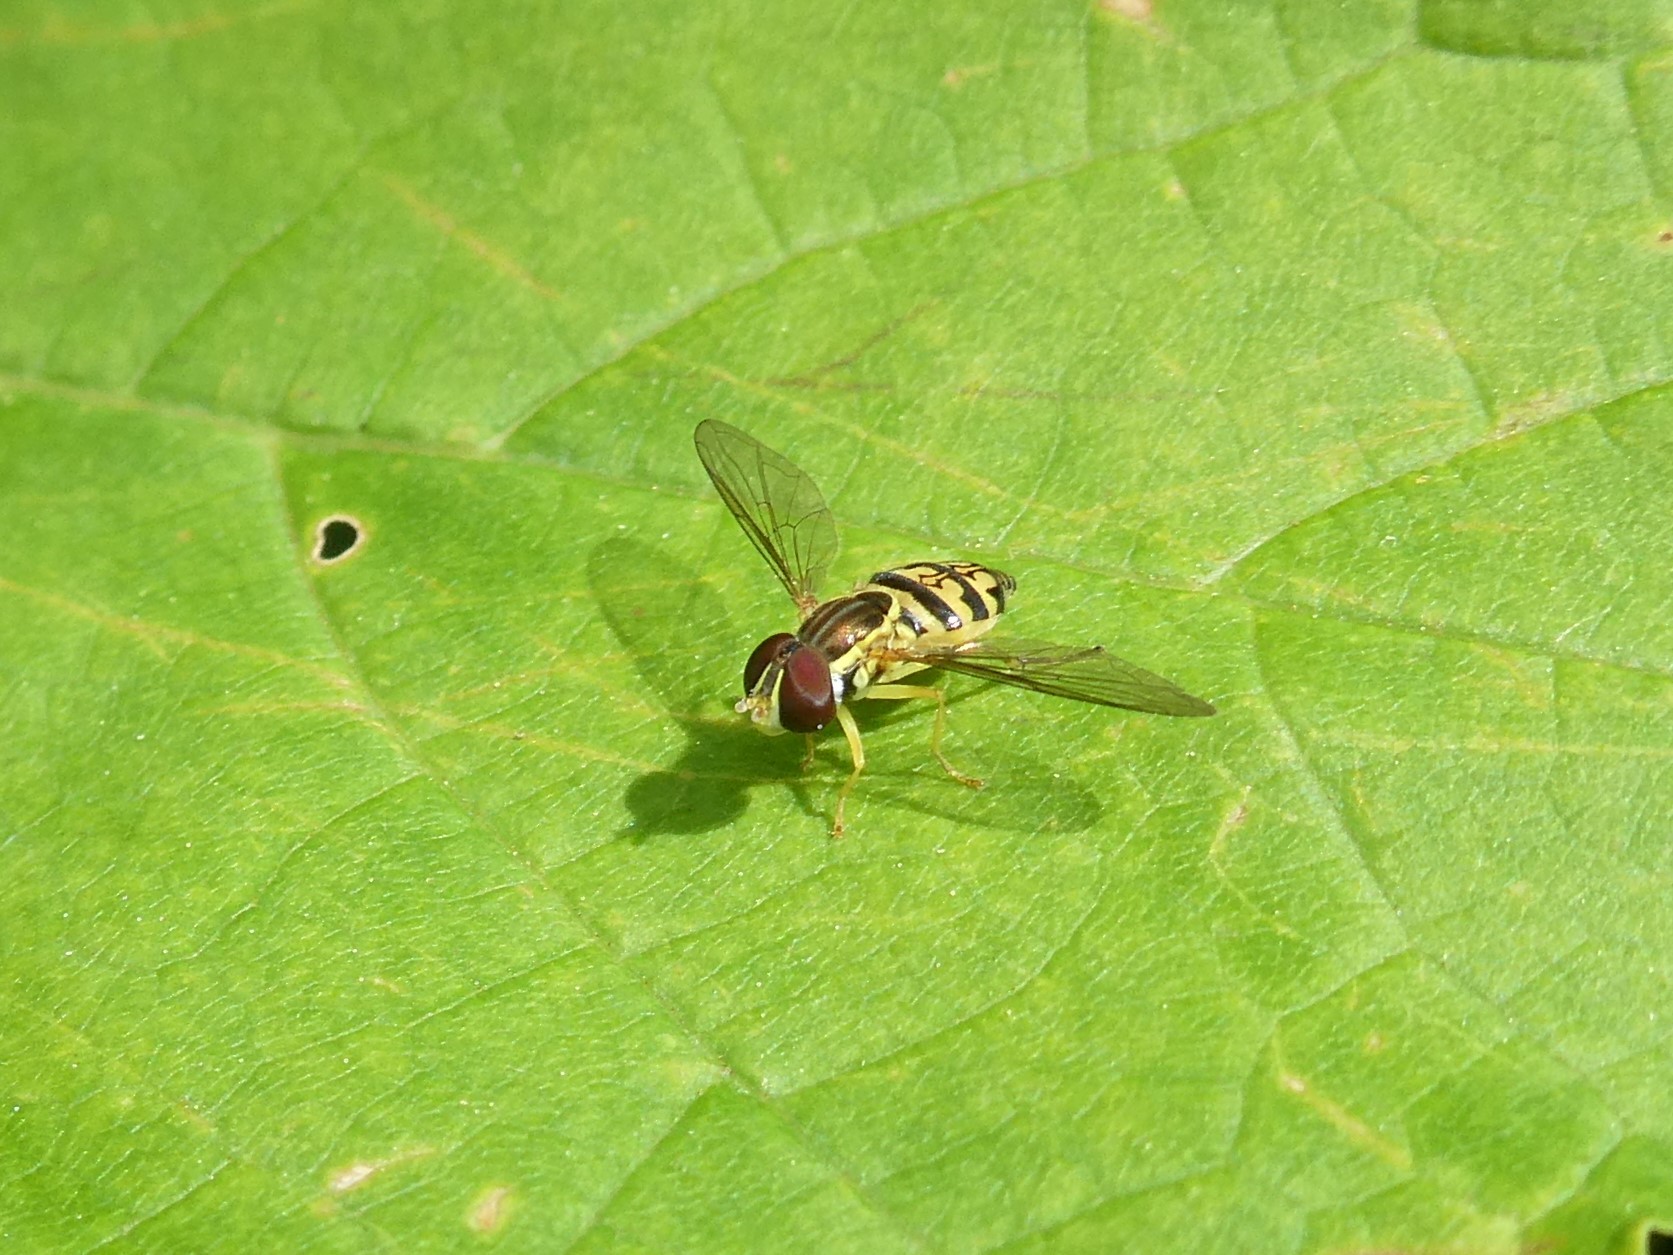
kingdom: Animalia
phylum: Arthropoda
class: Insecta
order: Diptera
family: Syrphidae
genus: Toxomerus
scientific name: Toxomerus geminatus
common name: Eastern calligrapher
